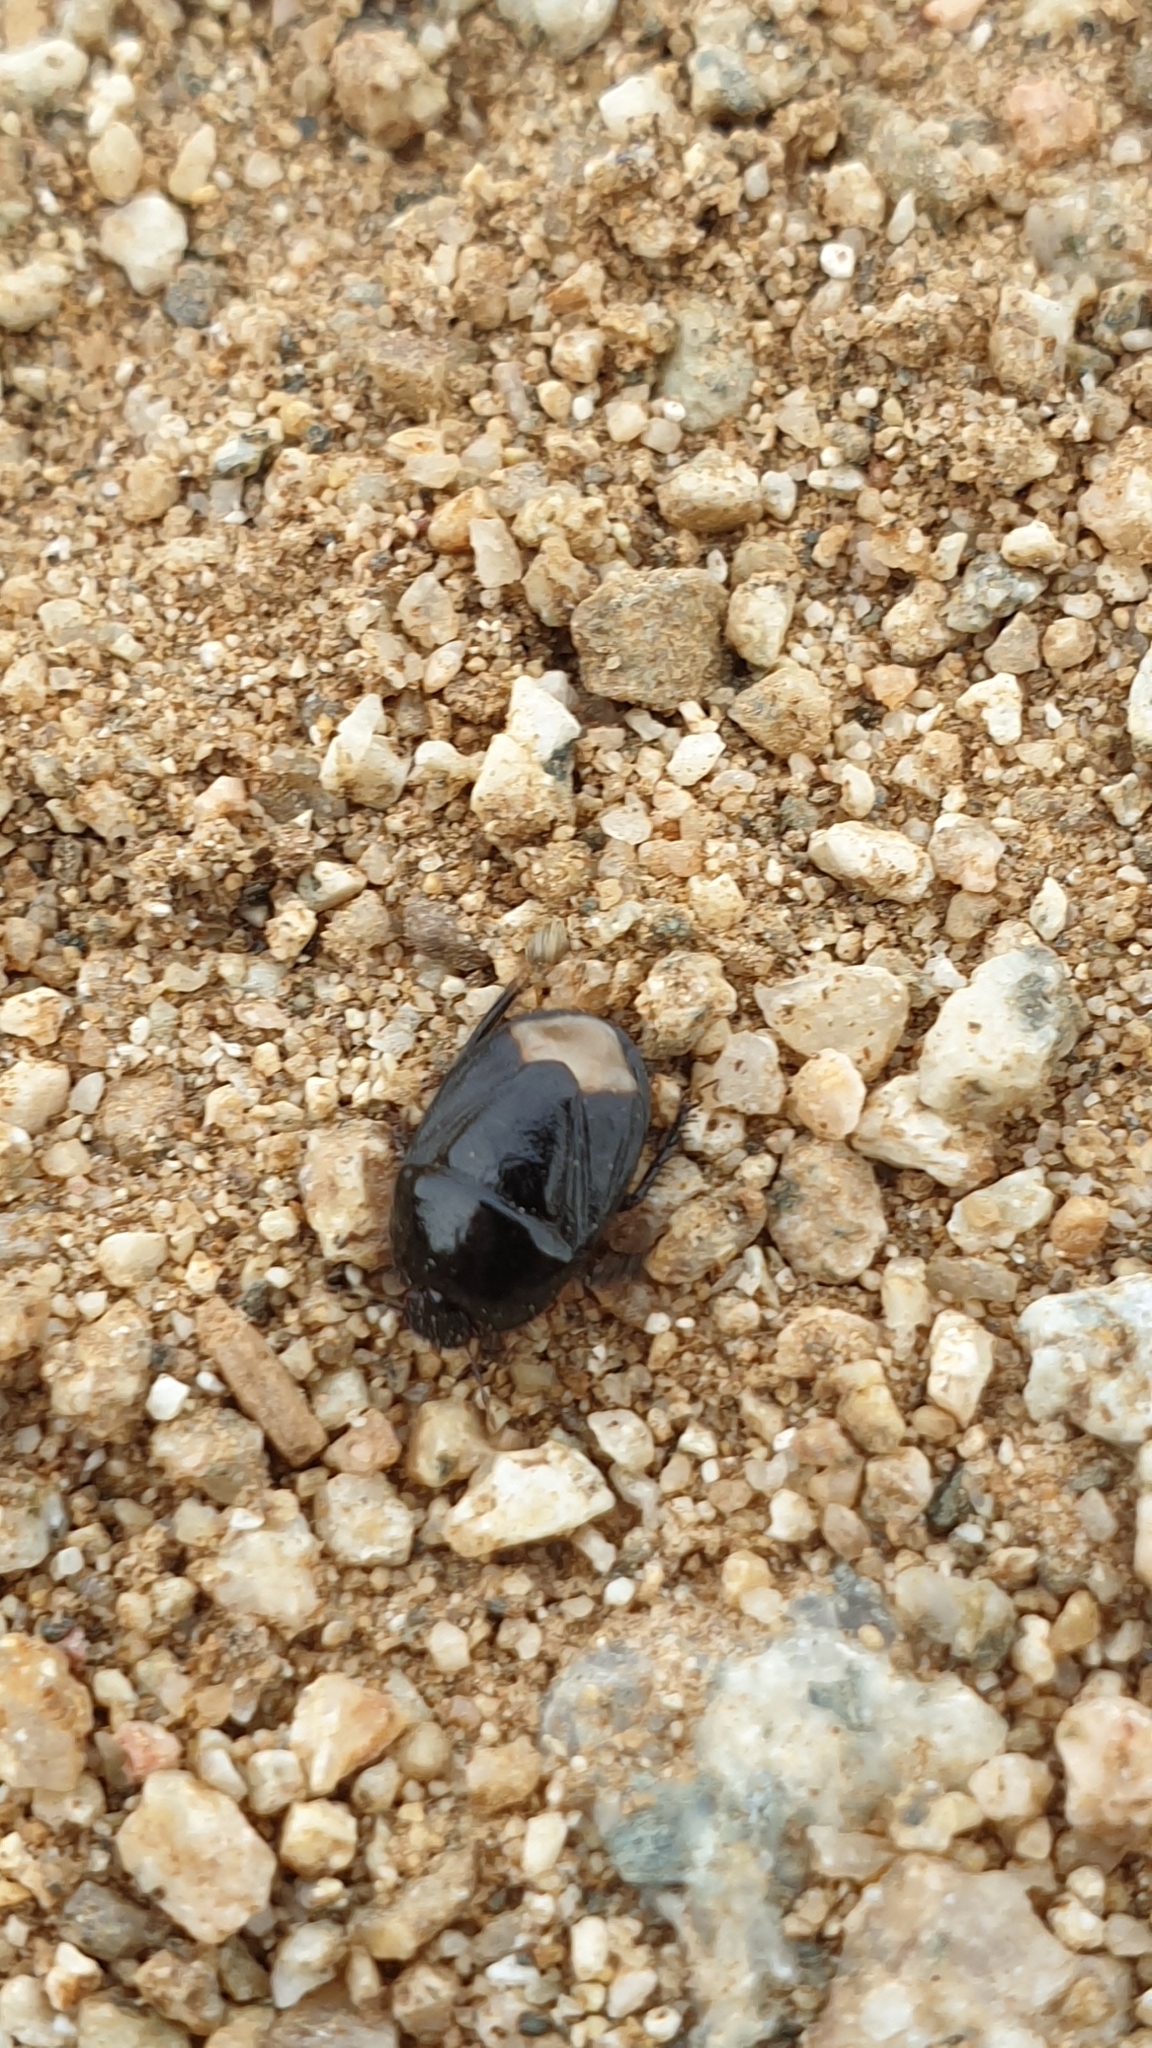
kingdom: Animalia
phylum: Arthropoda
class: Insecta
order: Hemiptera
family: Cydnidae
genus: Aethus
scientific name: Aethus pilosus
